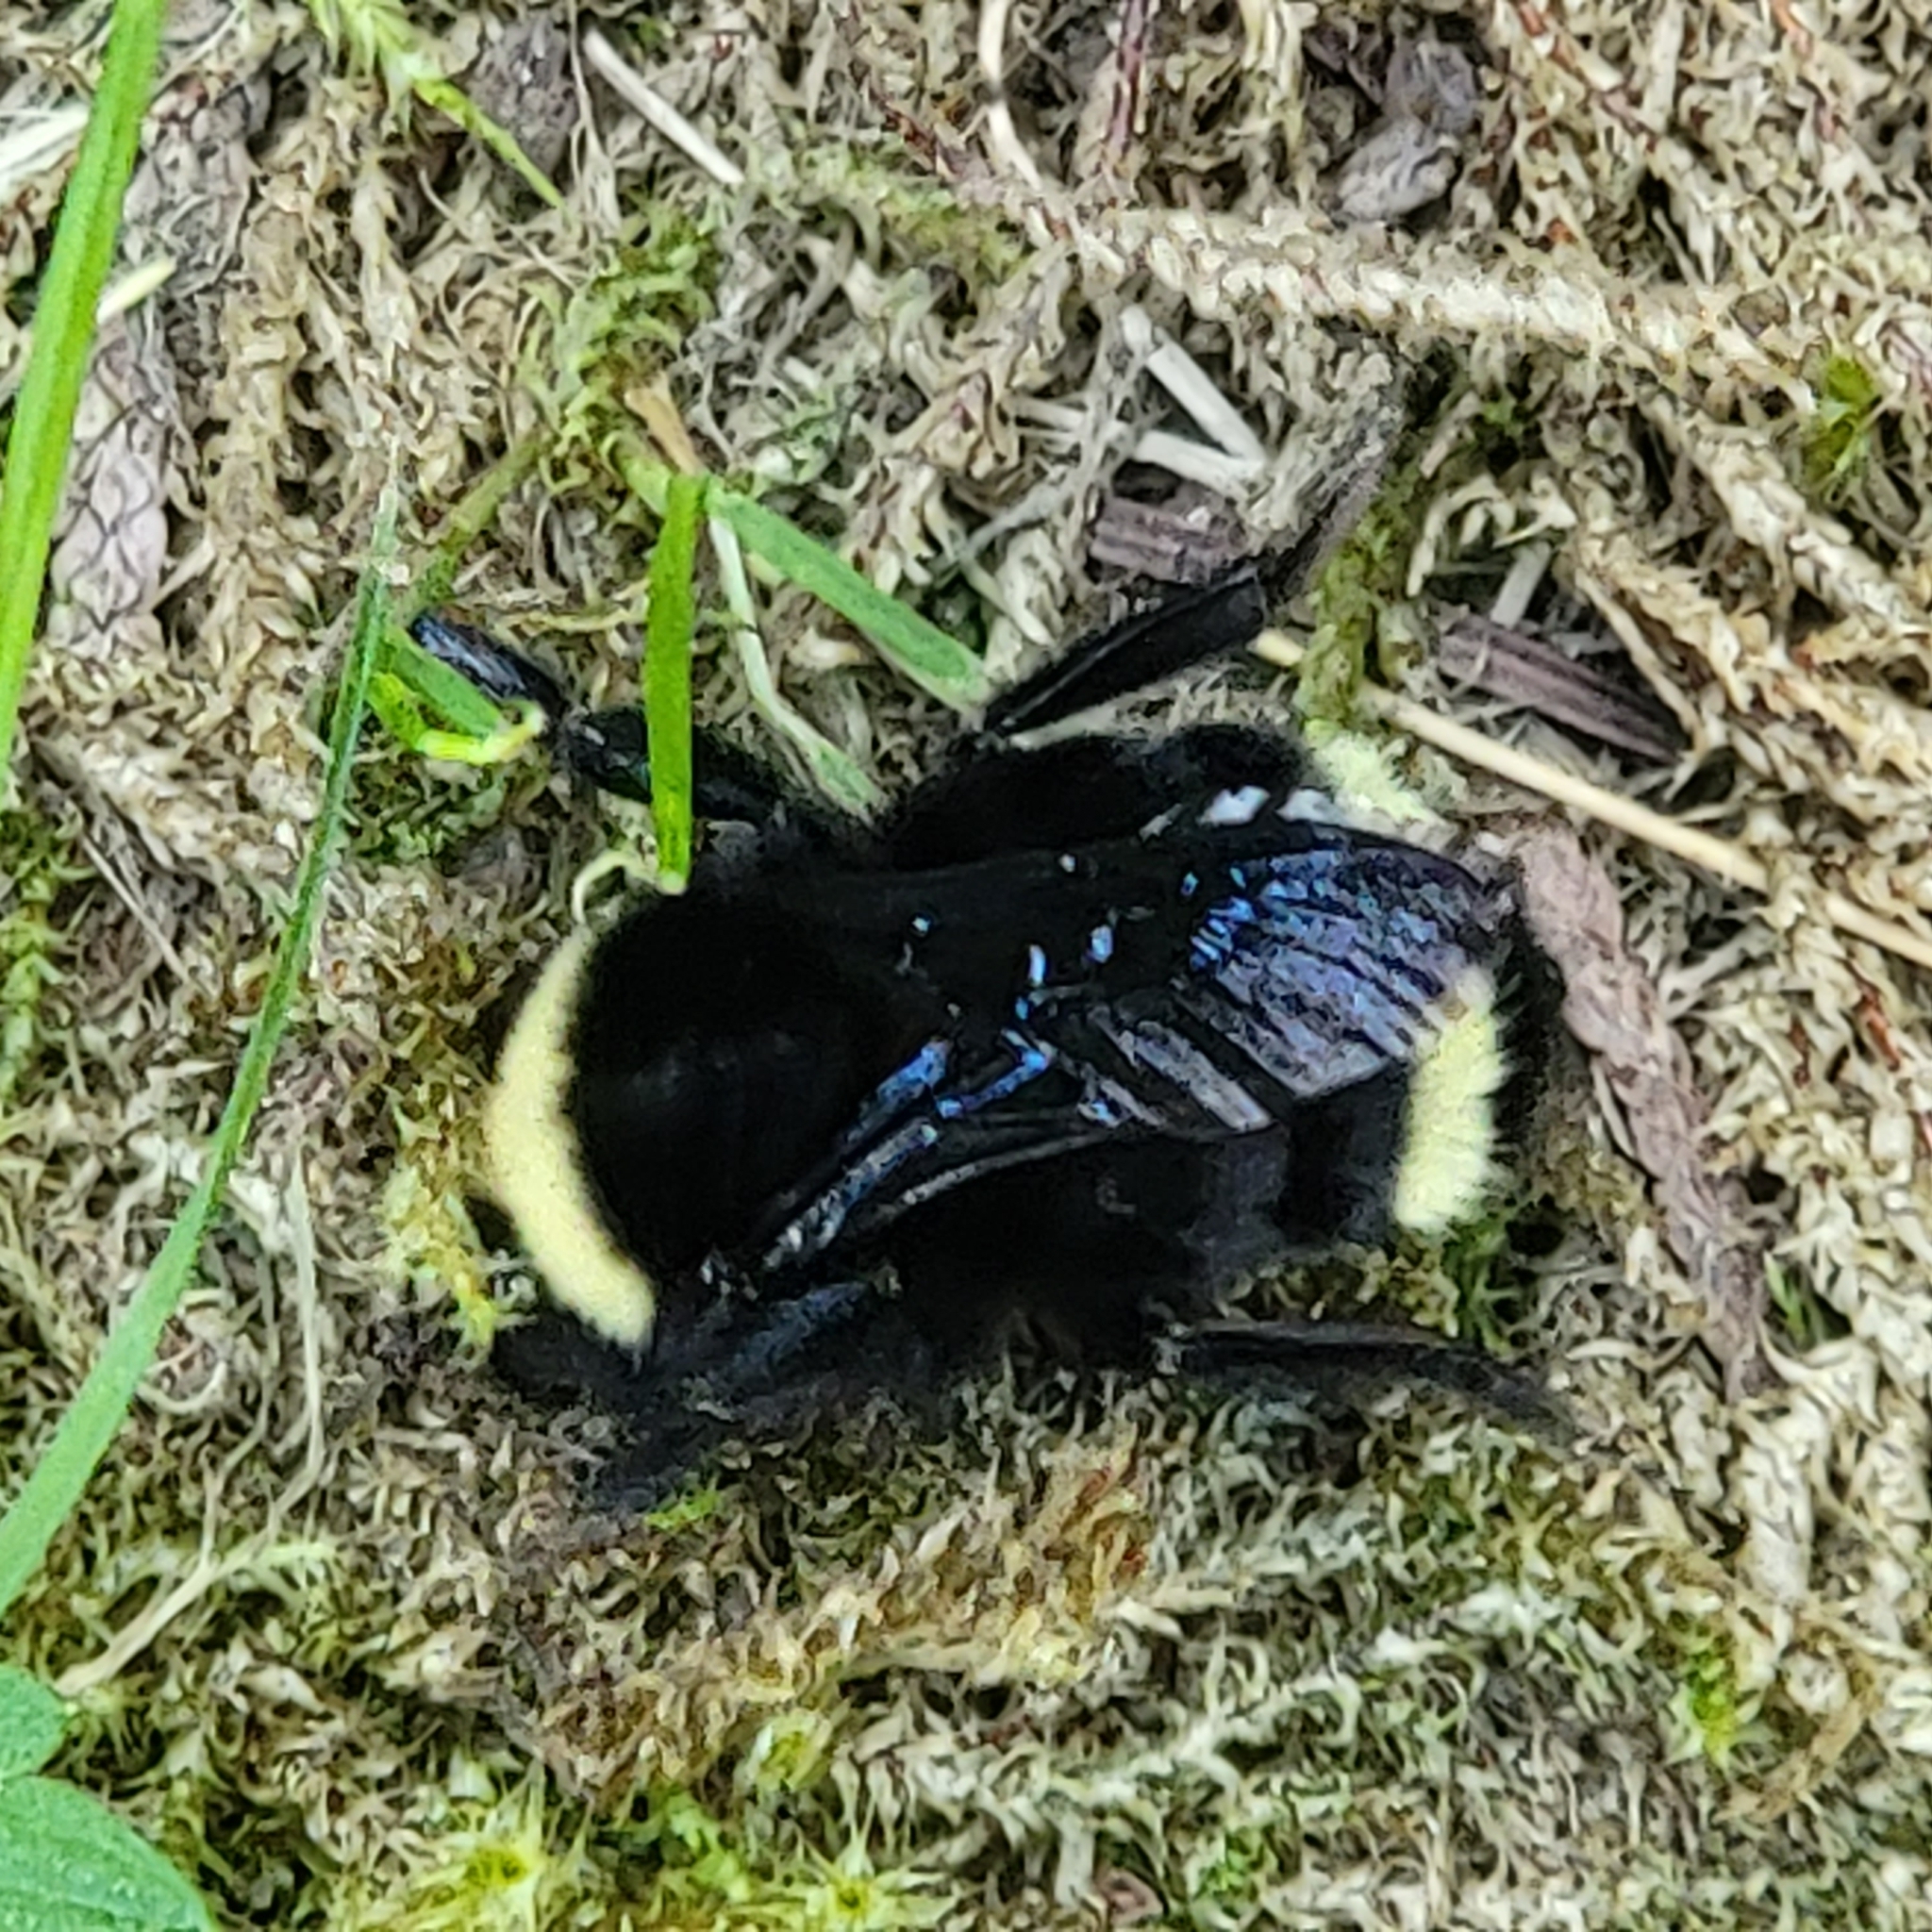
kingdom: Animalia
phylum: Arthropoda
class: Insecta
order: Hymenoptera
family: Apidae
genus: Bombus
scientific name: Bombus vosnesenskii
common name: Vosnesensky bumble bee
